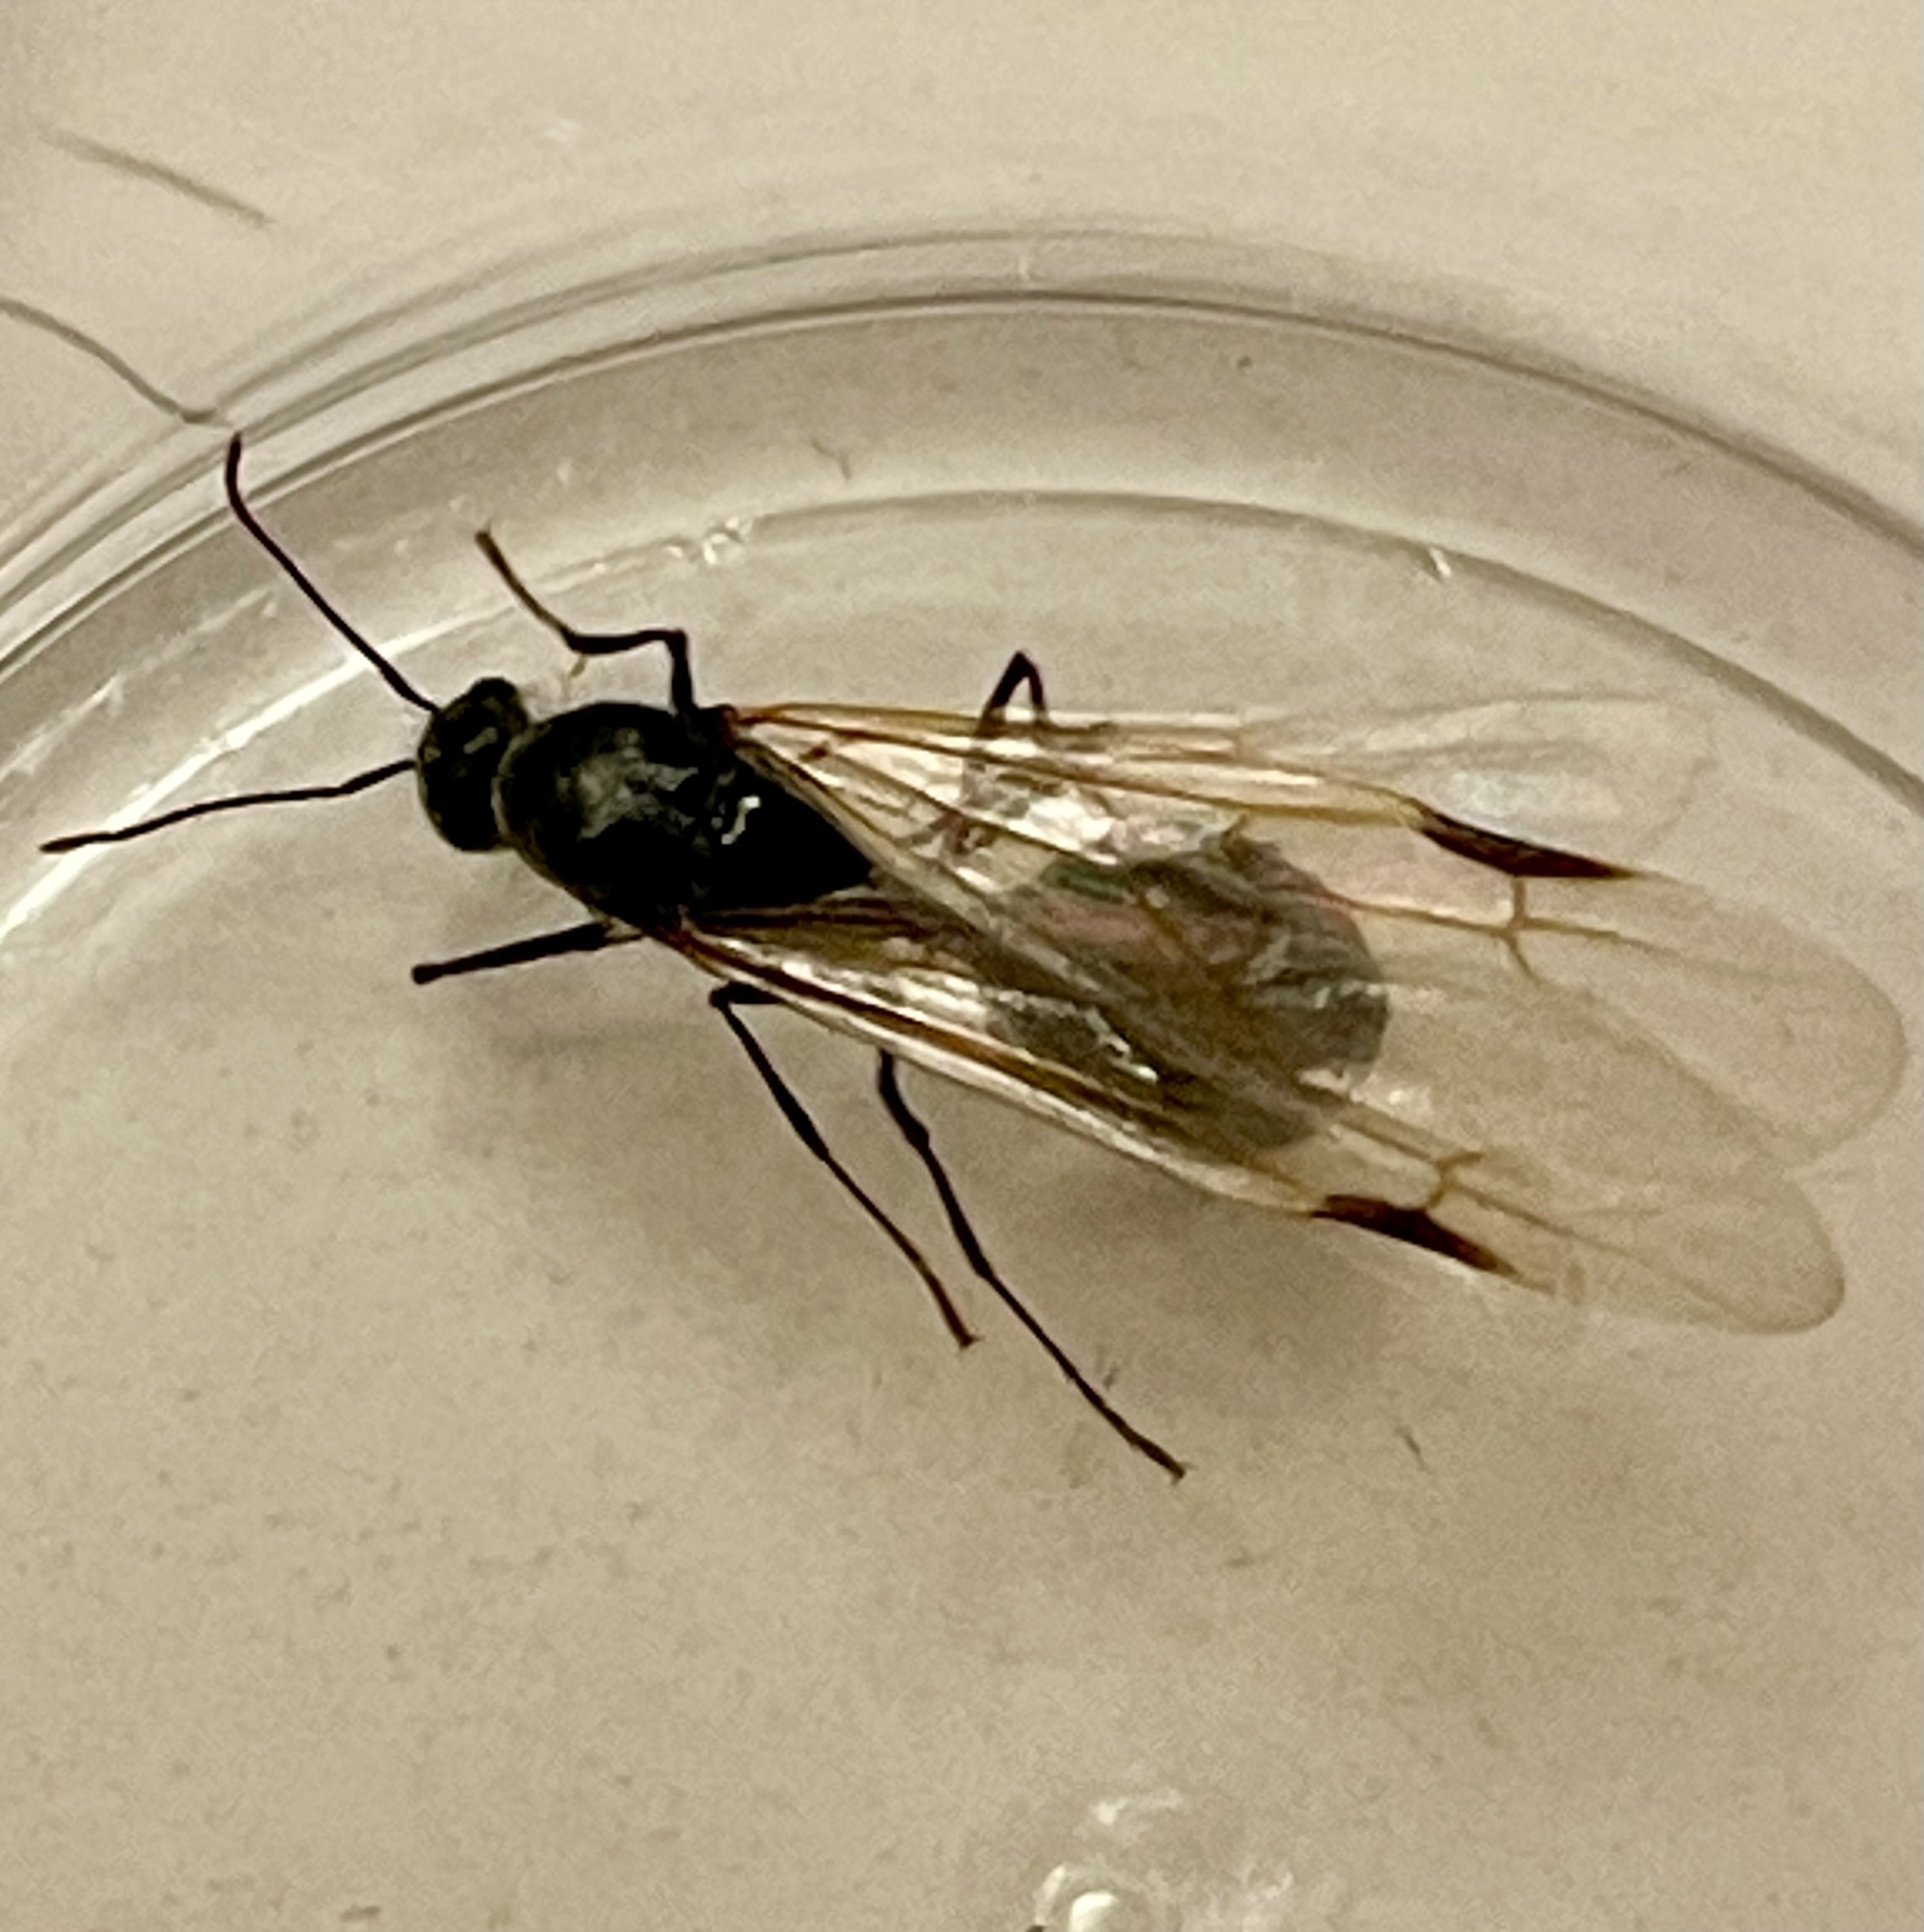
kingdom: Animalia
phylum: Arthropoda
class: Insecta
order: Hymenoptera
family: Formicidae
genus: Messor
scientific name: Messor pergandei
